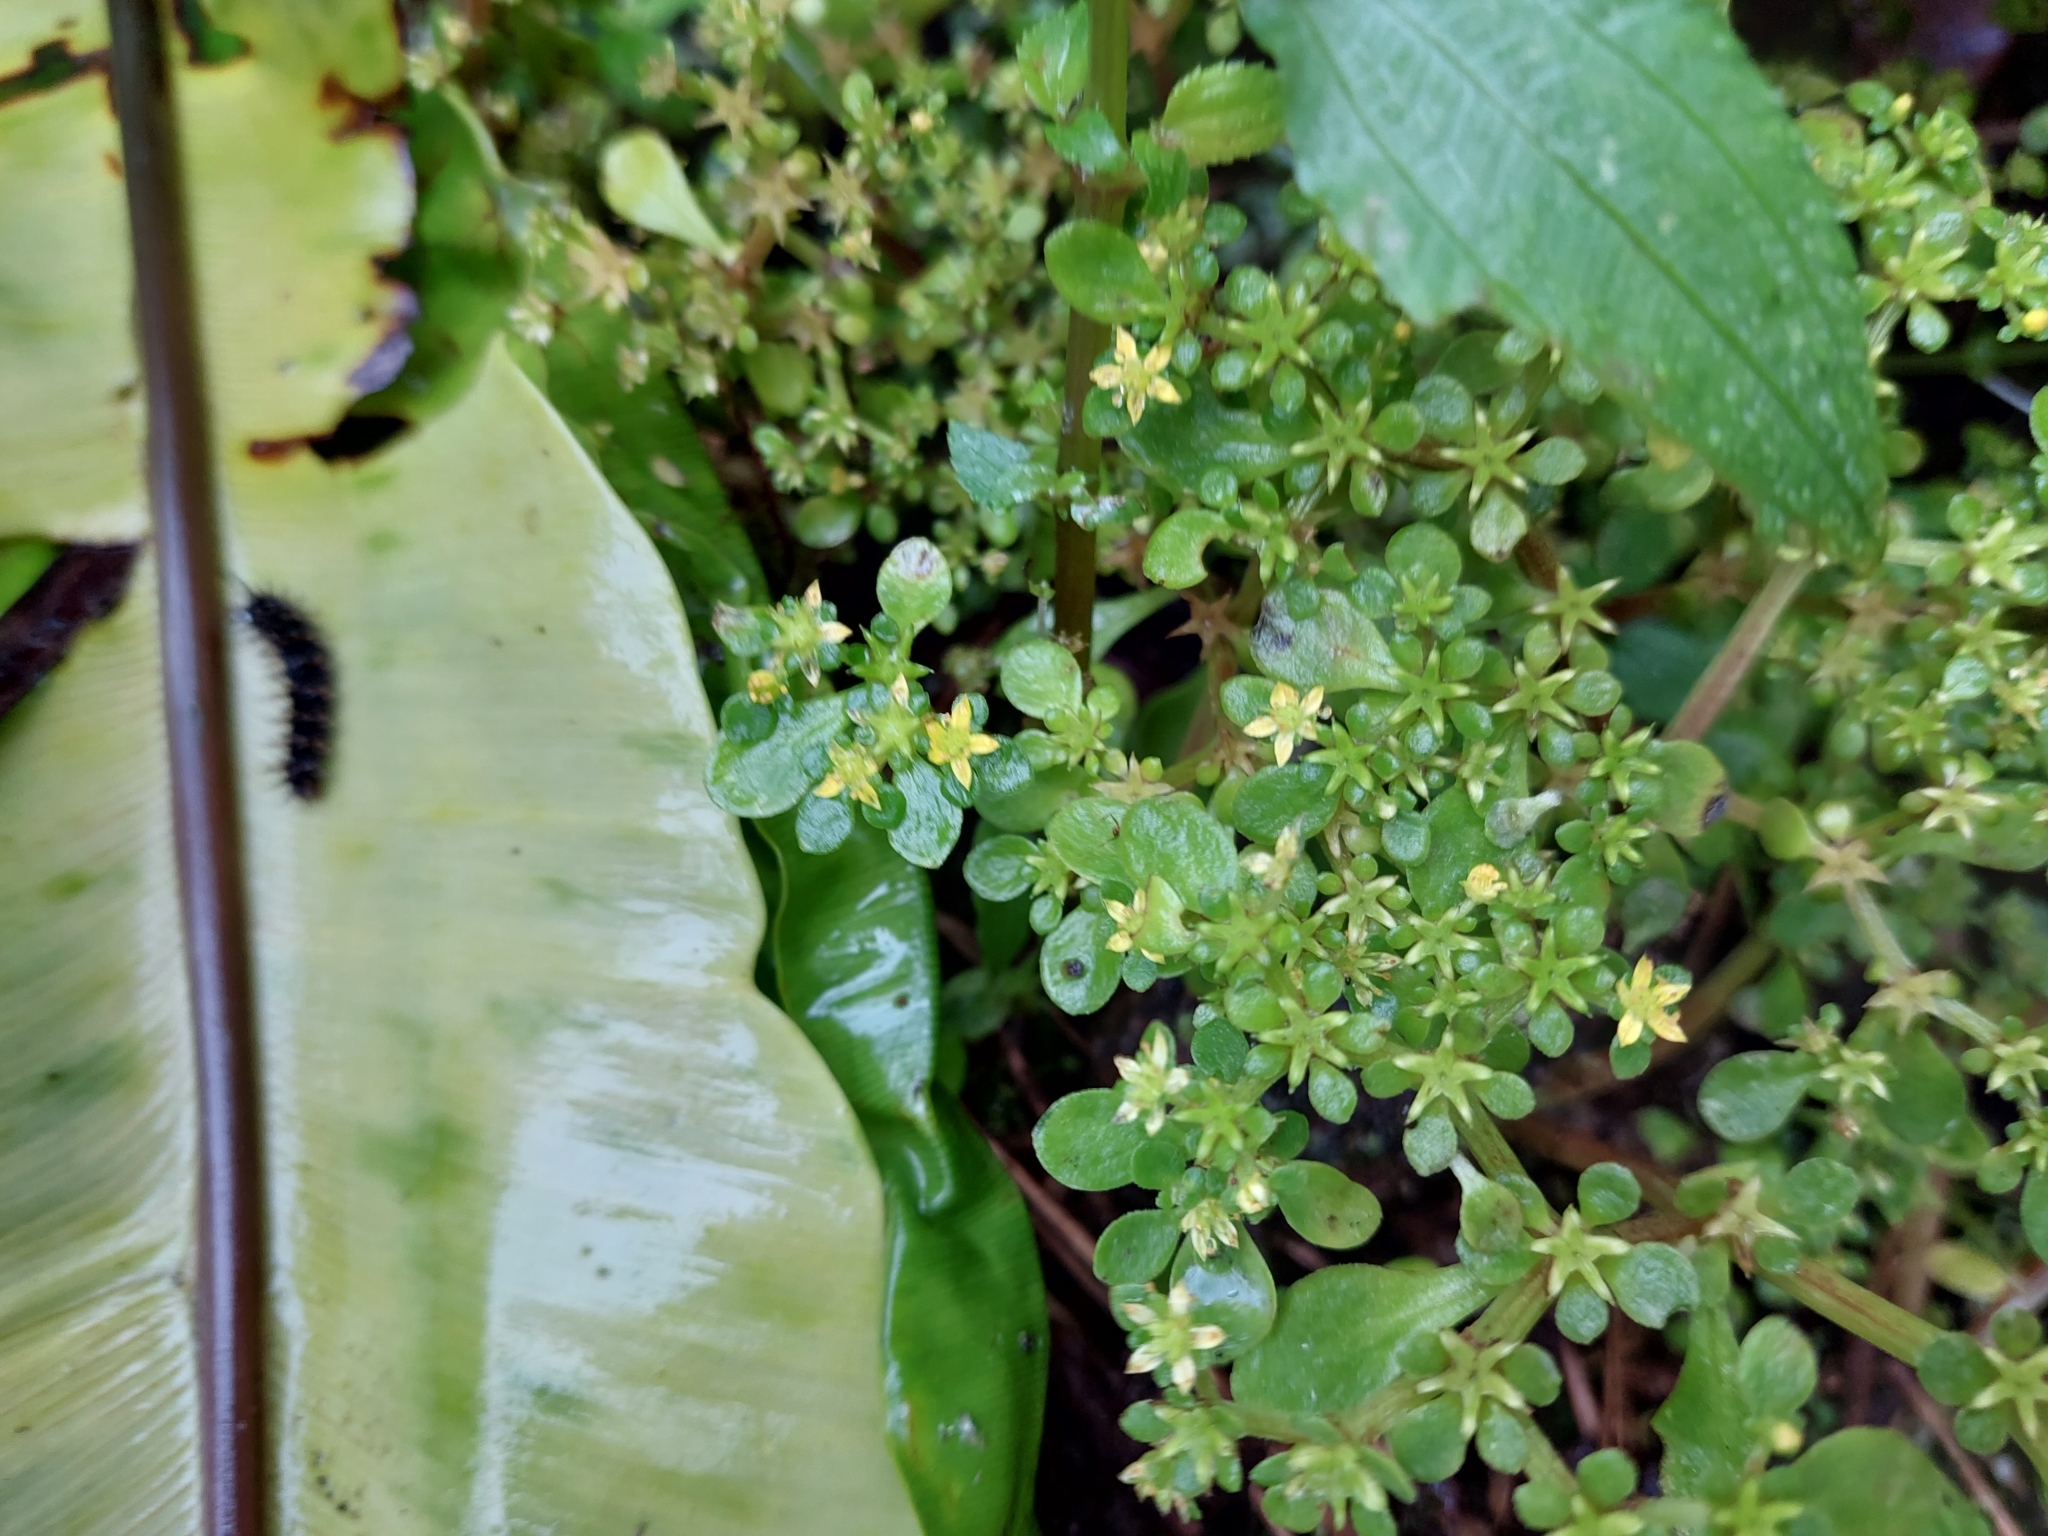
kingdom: Plantae
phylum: Tracheophyta
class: Magnoliopsida
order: Saxifragales
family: Crassulaceae
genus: Sedum
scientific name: Sedum actinocarpum
